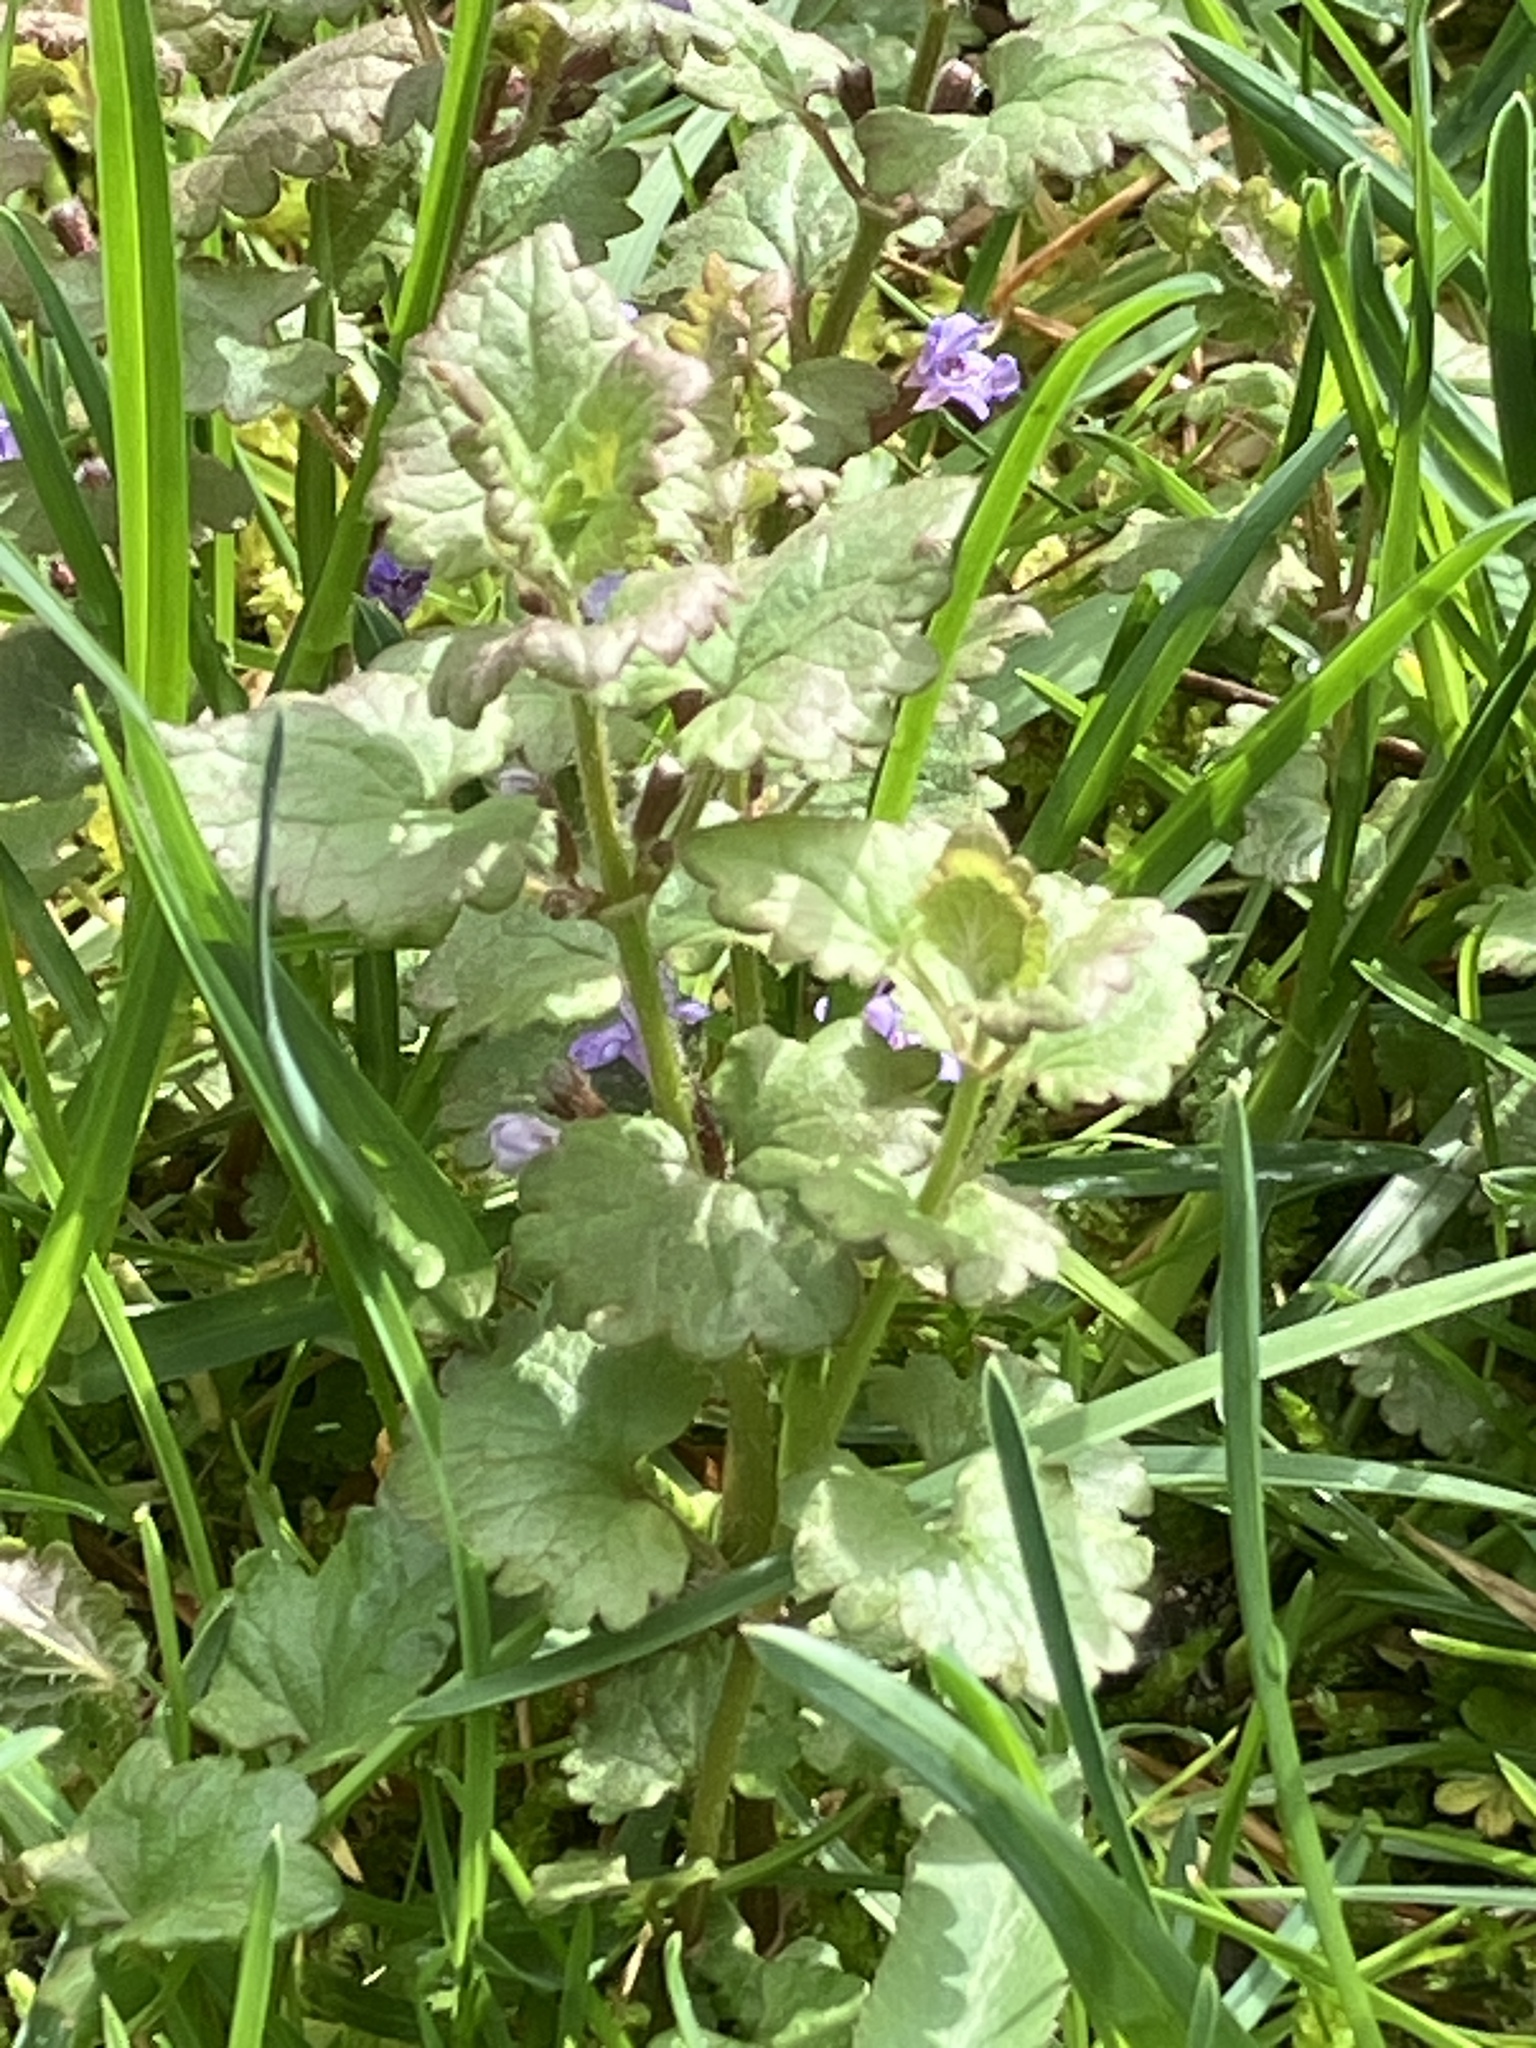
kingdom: Plantae
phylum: Tracheophyta
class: Magnoliopsida
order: Lamiales
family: Lamiaceae
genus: Glechoma
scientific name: Glechoma hederacea
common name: Ground ivy
